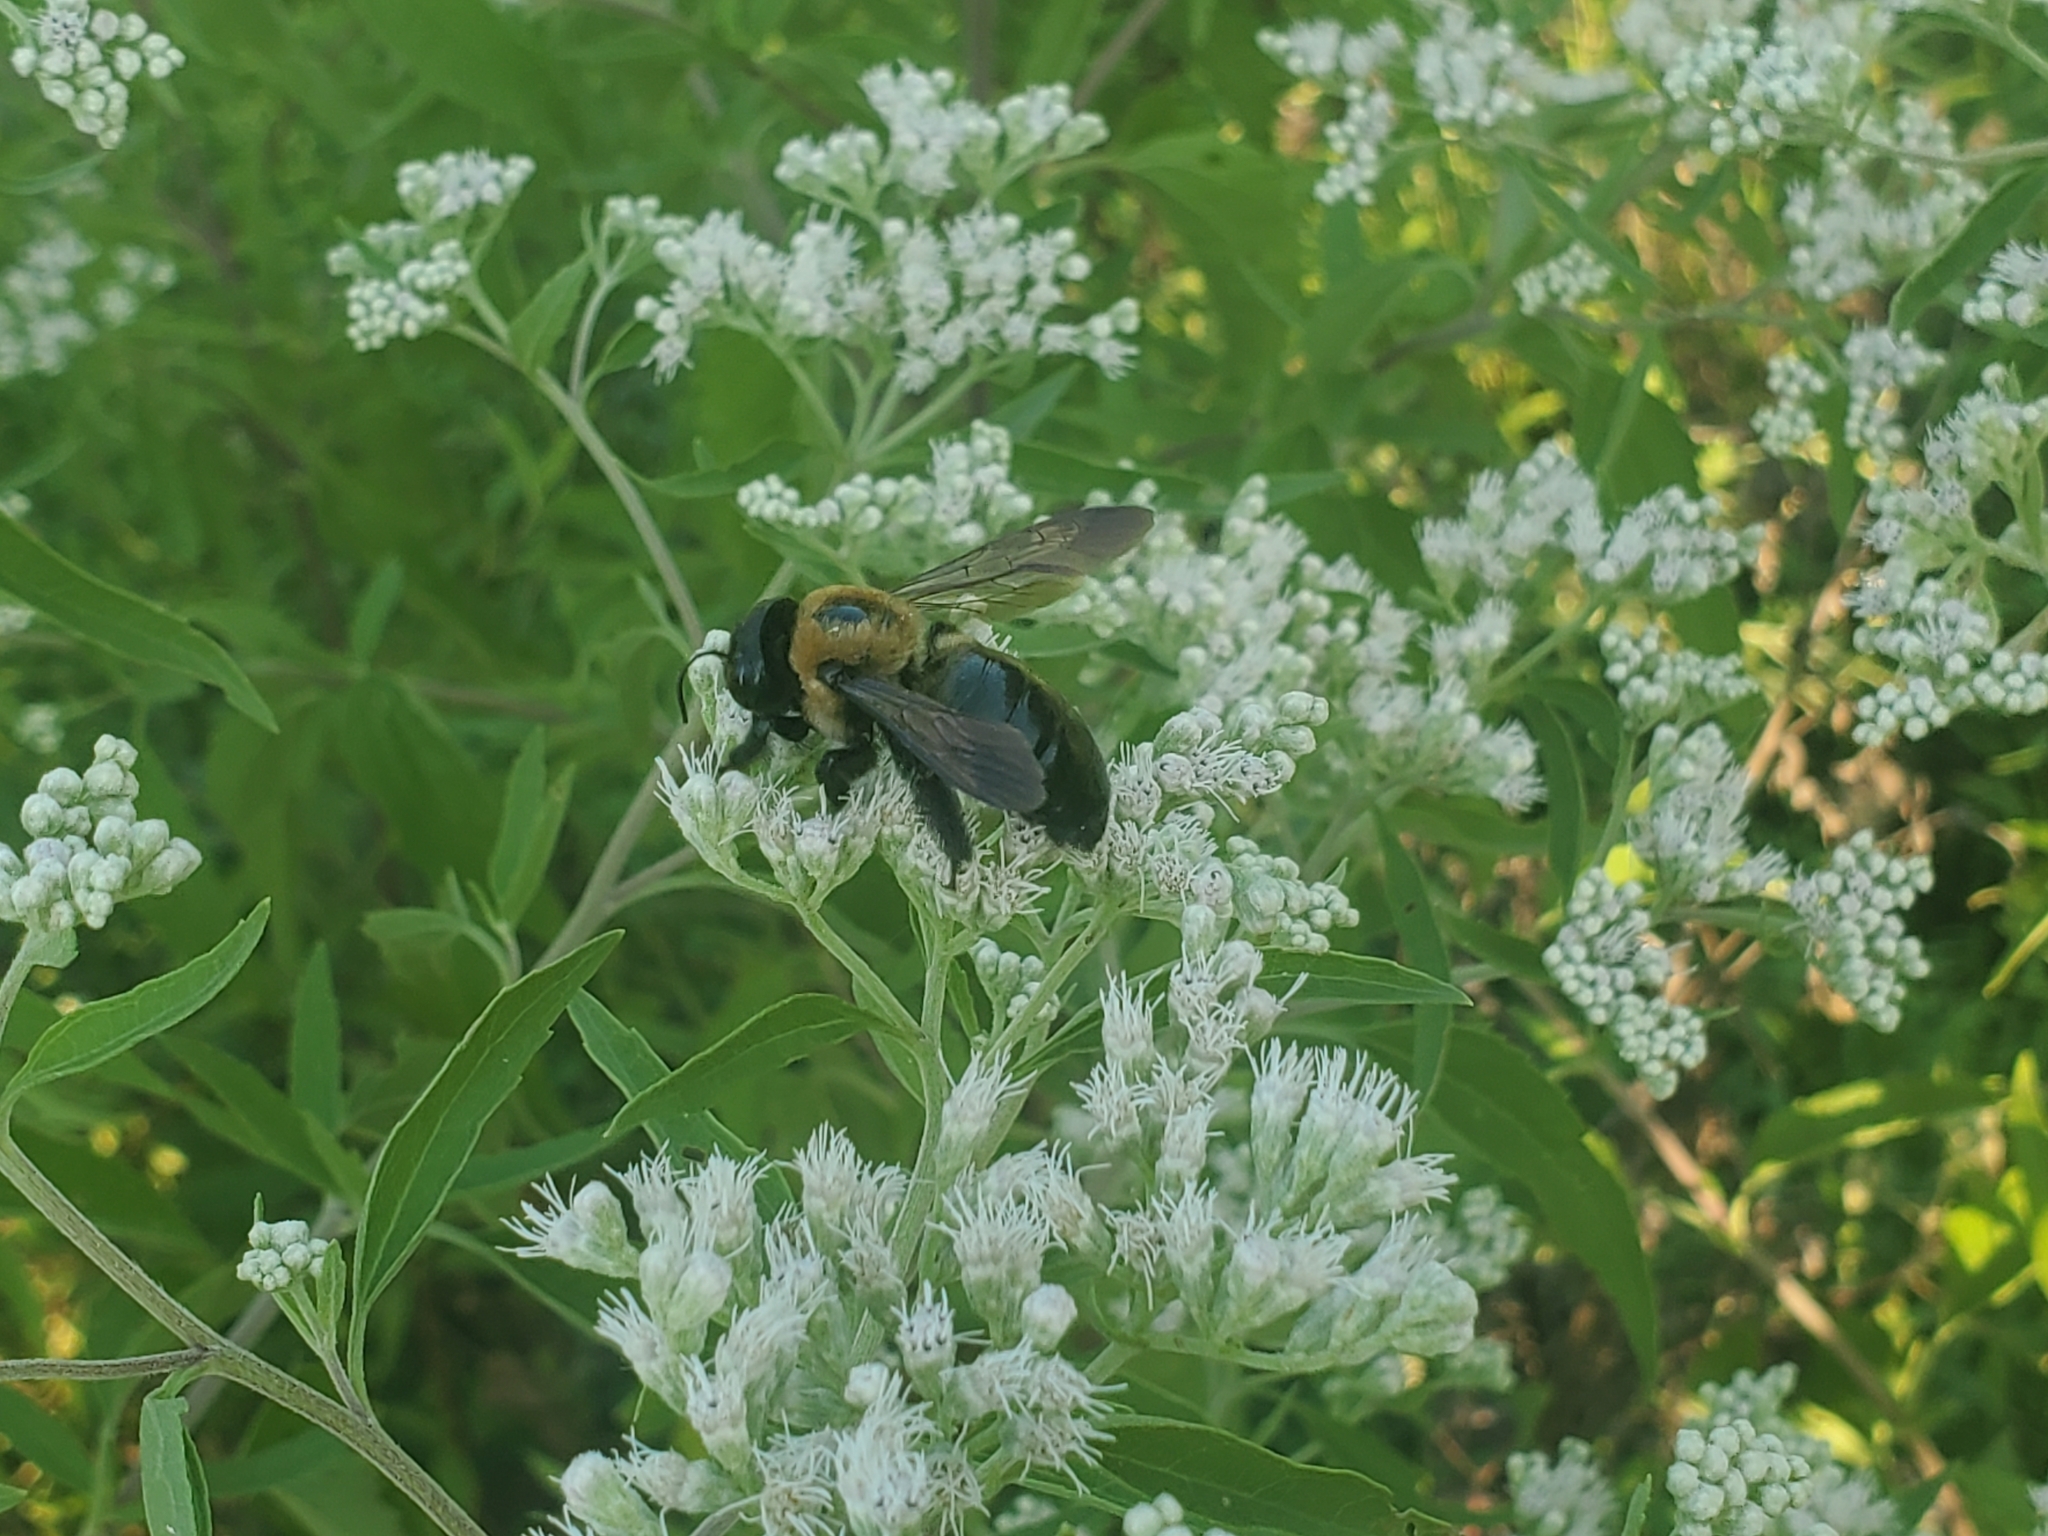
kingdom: Animalia
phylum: Arthropoda
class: Insecta
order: Hymenoptera
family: Apidae
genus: Xylocopa
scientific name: Xylocopa virginica
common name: Carpenter bee
